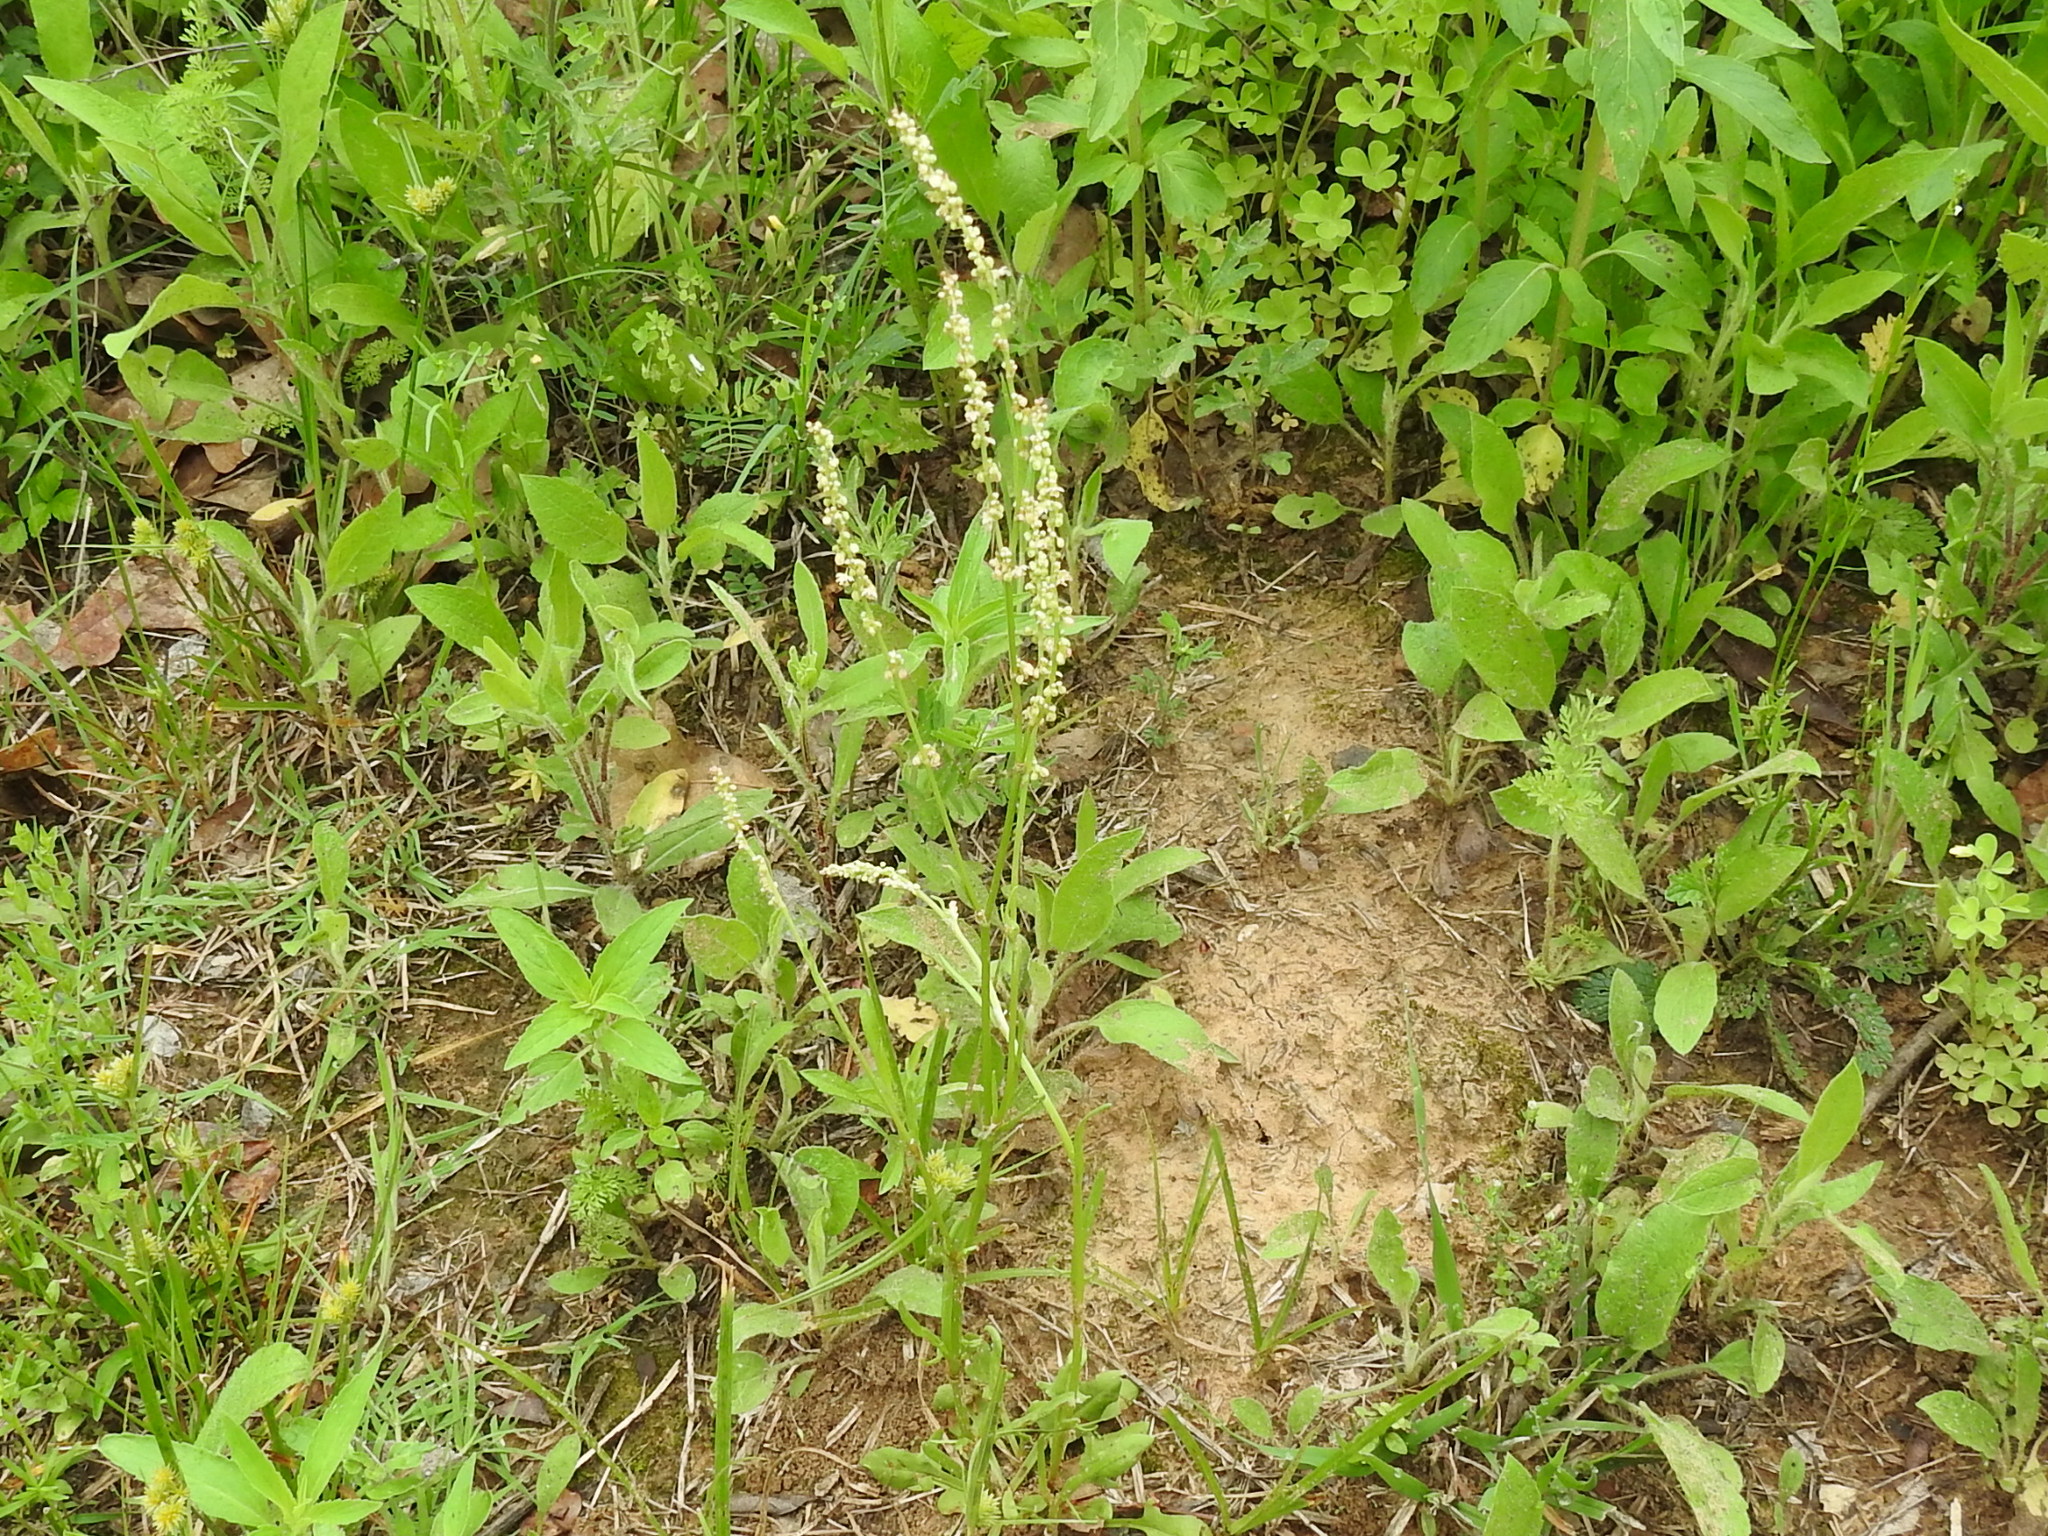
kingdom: Plantae
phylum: Tracheophyta
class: Magnoliopsida
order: Caryophyllales
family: Polygonaceae
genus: Rumex
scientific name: Rumex hastatulus
